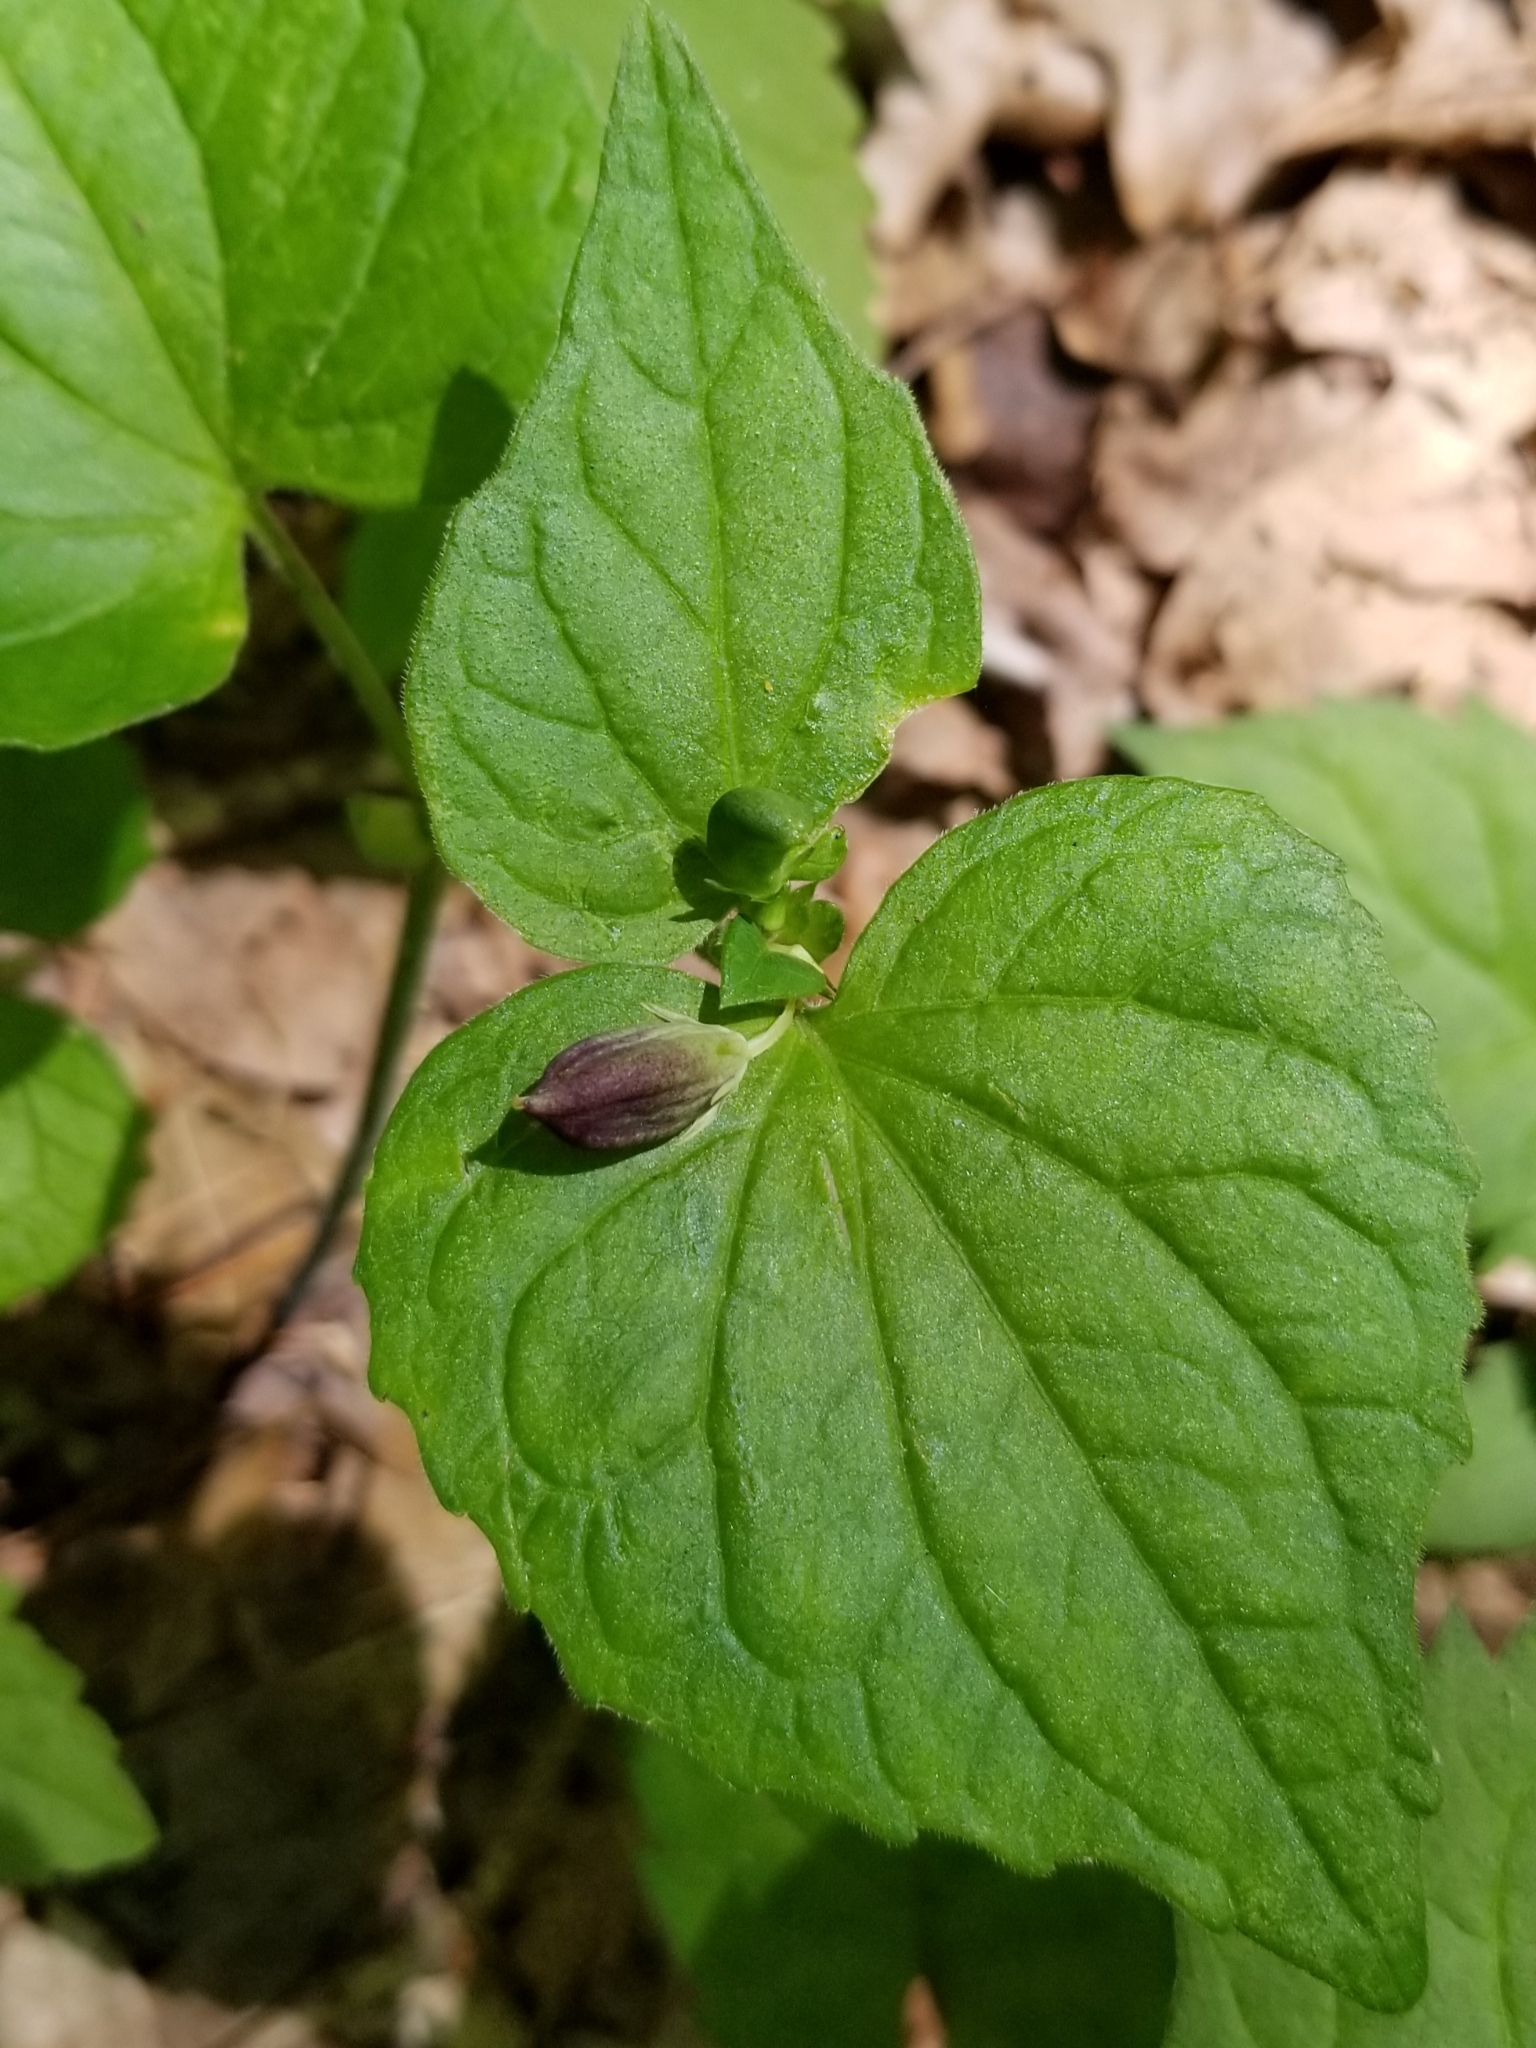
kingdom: Plantae
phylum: Tracheophyta
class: Magnoliopsida
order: Malpighiales
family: Violaceae
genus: Viola
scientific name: Viola eriocarpa
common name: Smooth yellow violet
